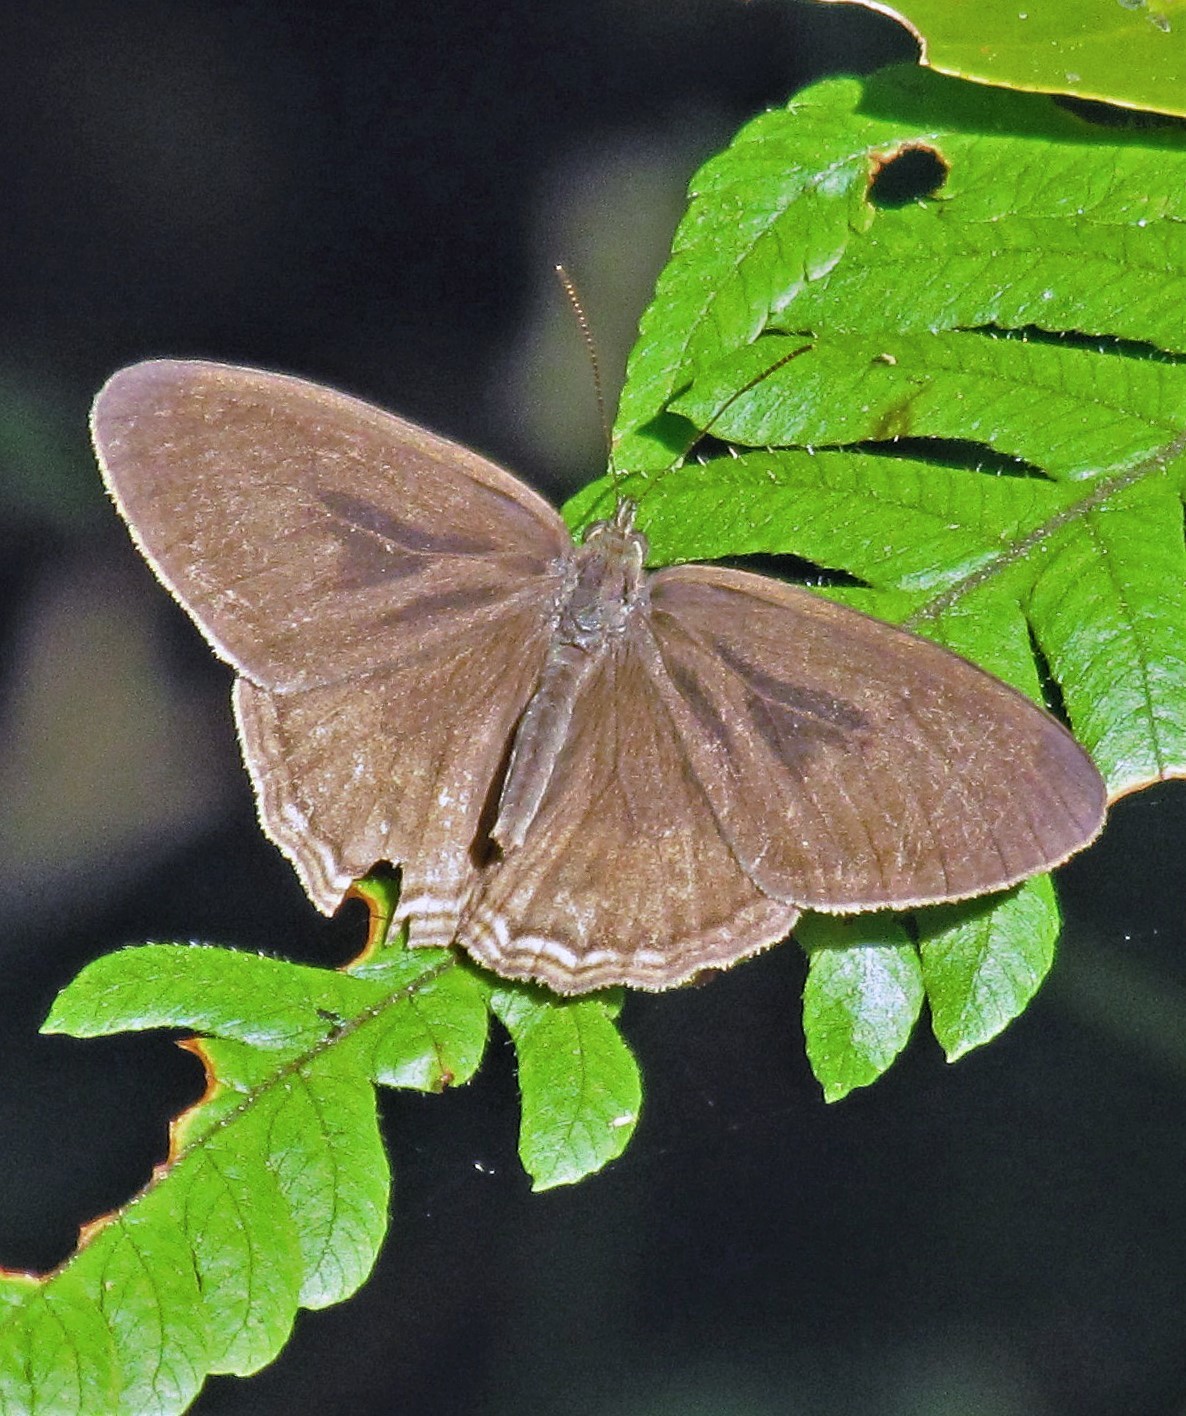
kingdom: Animalia
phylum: Arthropoda
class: Insecta
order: Lepidoptera
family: Nymphalidae
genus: Splendeuptychia
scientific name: Splendeuptychia libitina
